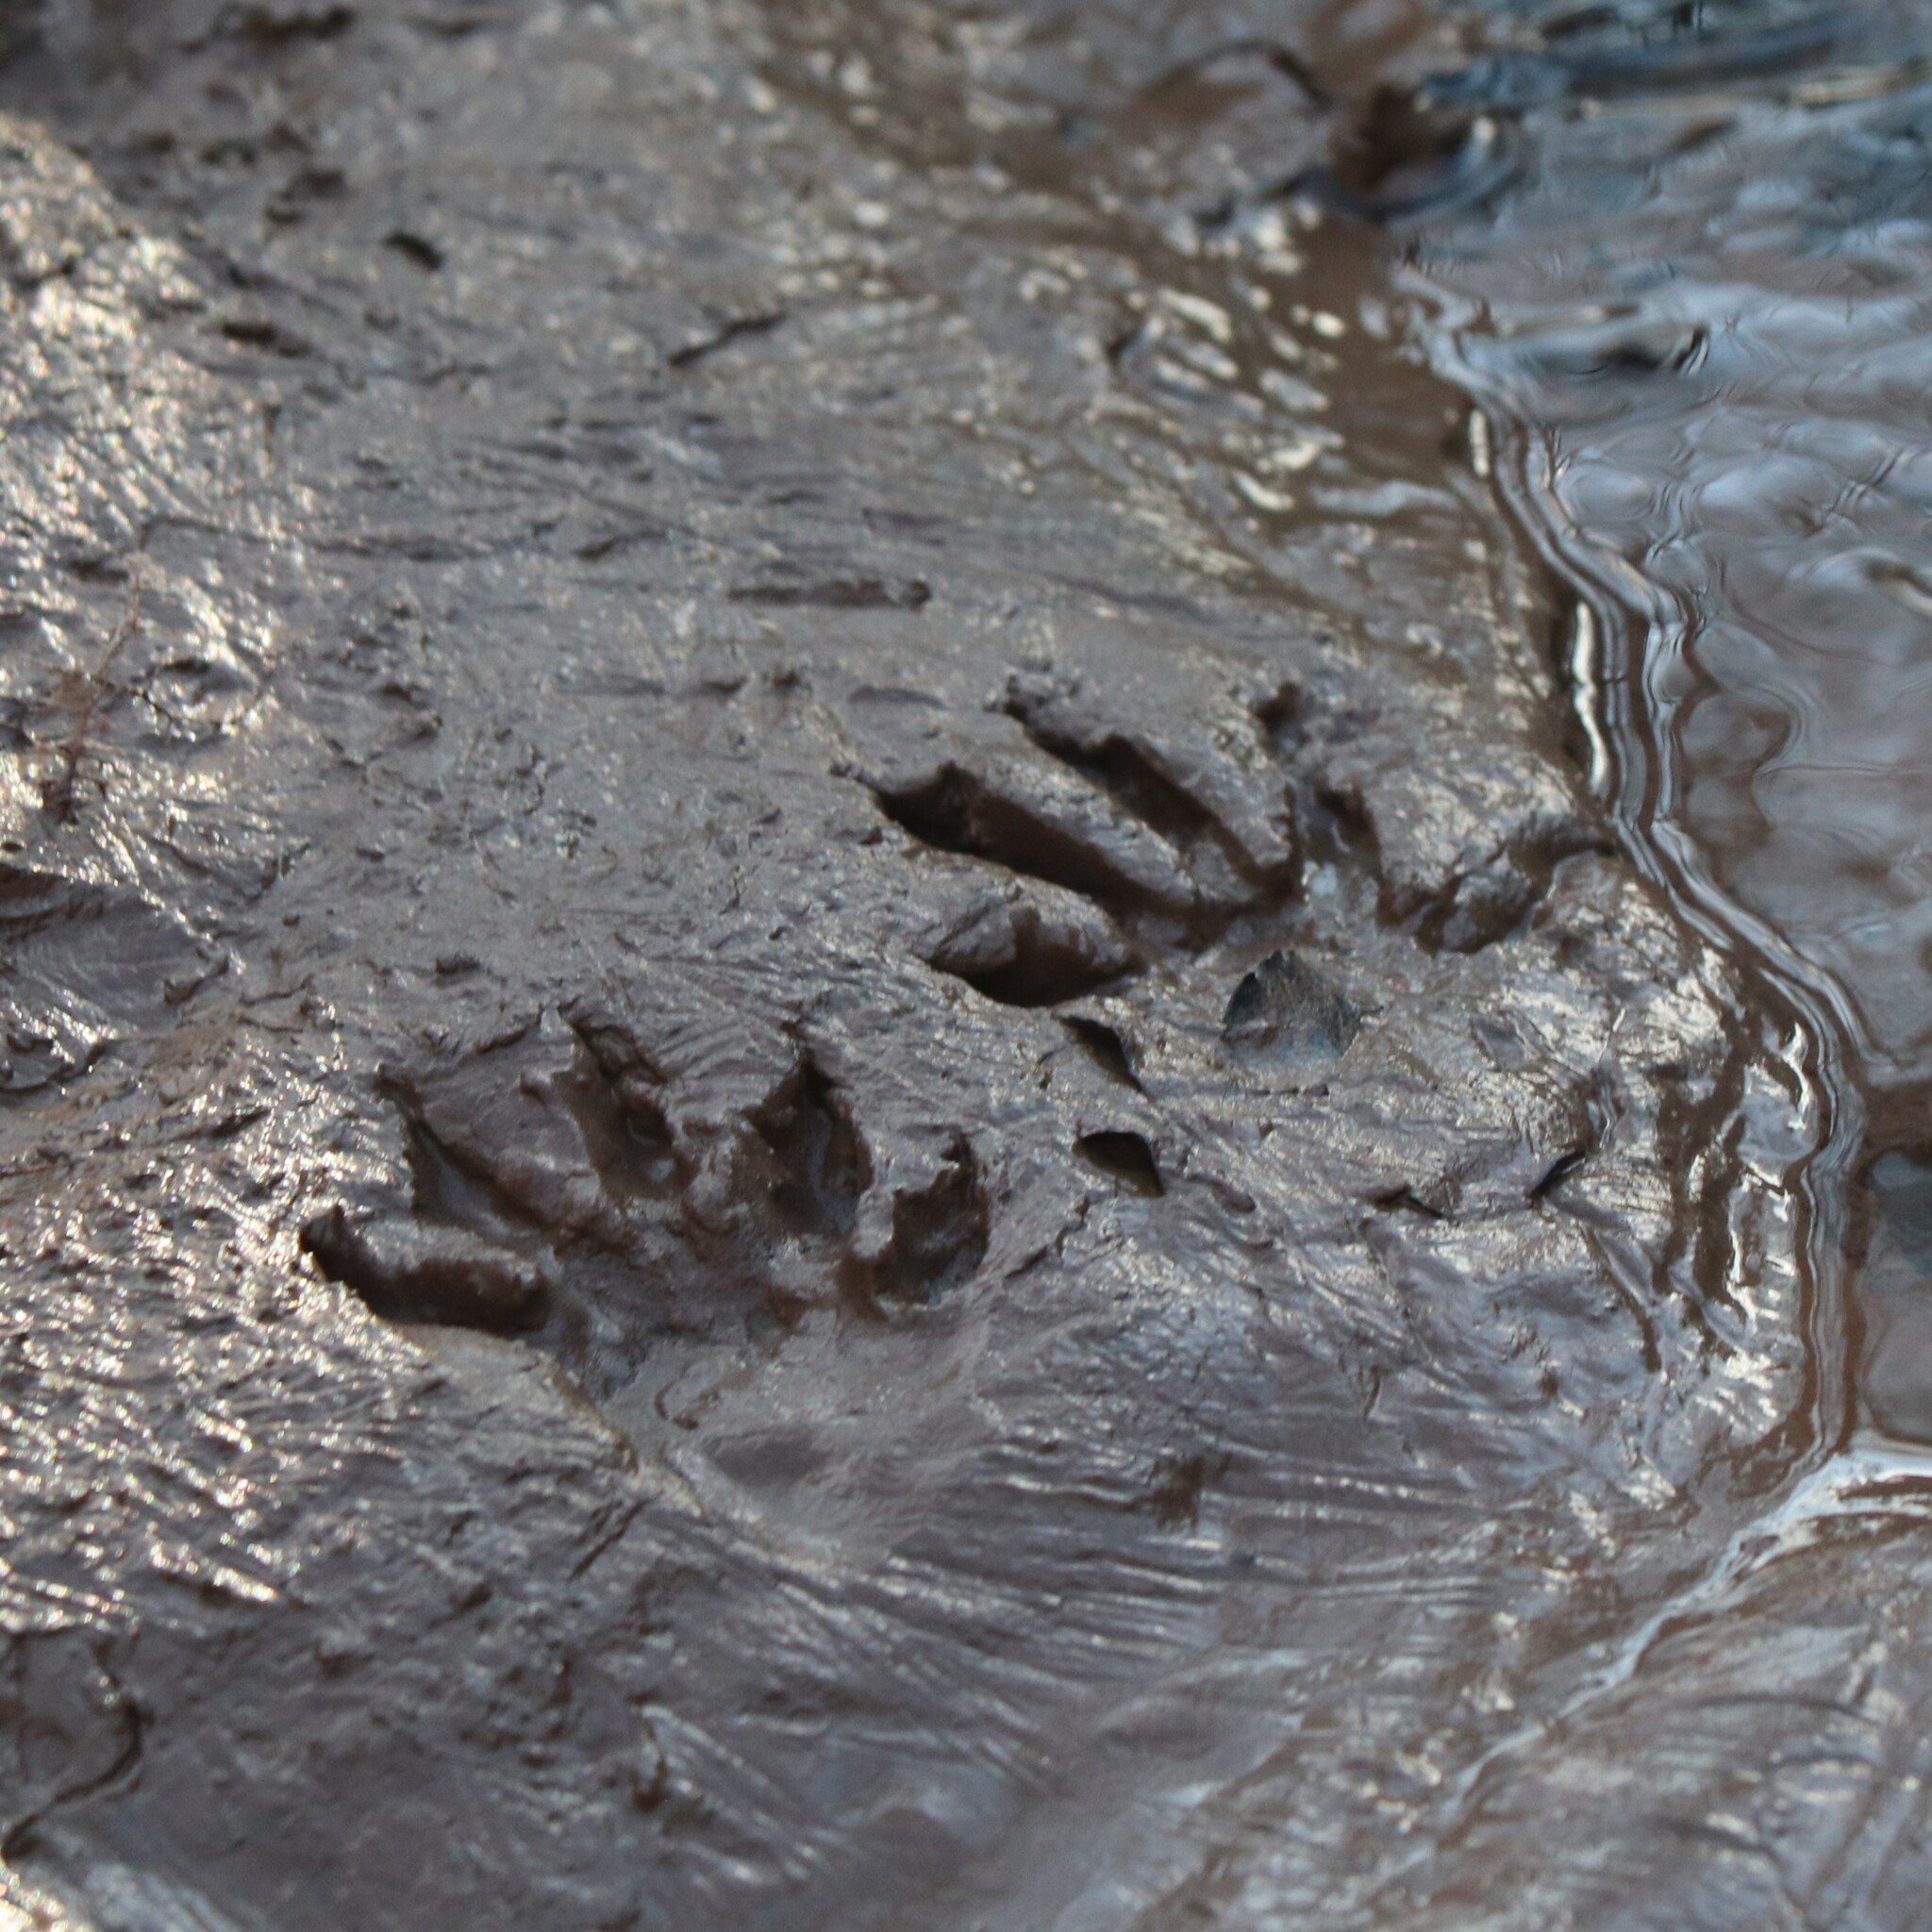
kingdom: Animalia
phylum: Chordata
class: Mammalia
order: Carnivora
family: Procyonidae
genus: Procyon
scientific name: Procyon lotor
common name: Raccoon
